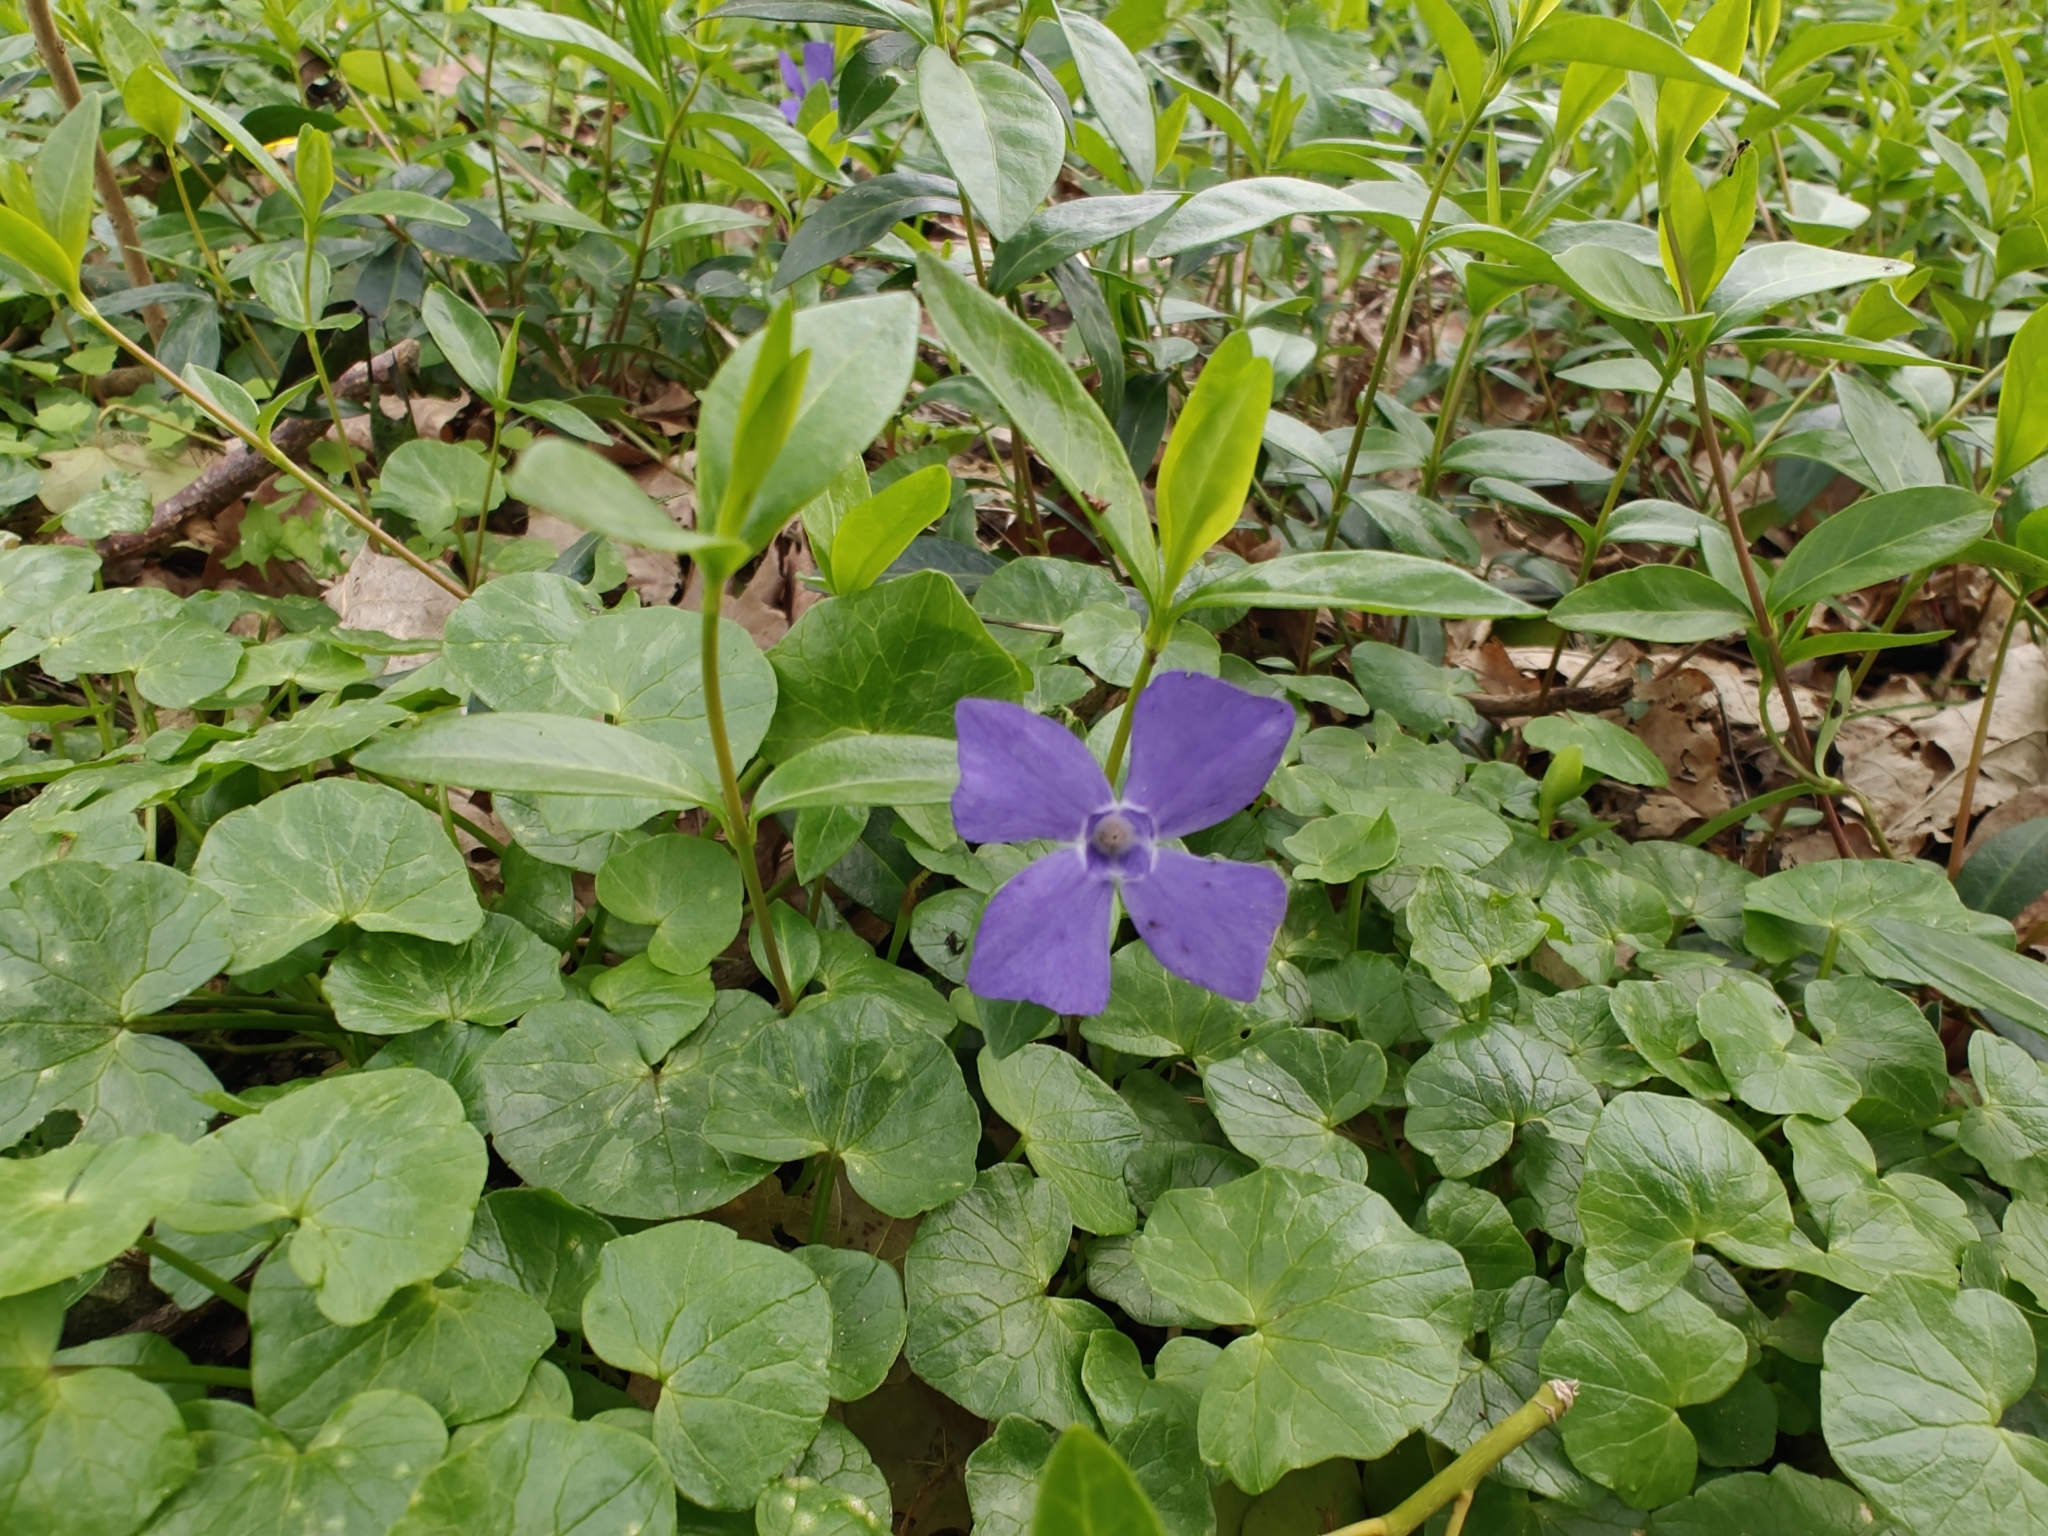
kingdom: Plantae
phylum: Tracheophyta
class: Magnoliopsida
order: Gentianales
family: Apocynaceae
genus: Vinca
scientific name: Vinca minor
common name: Lesser periwinkle
